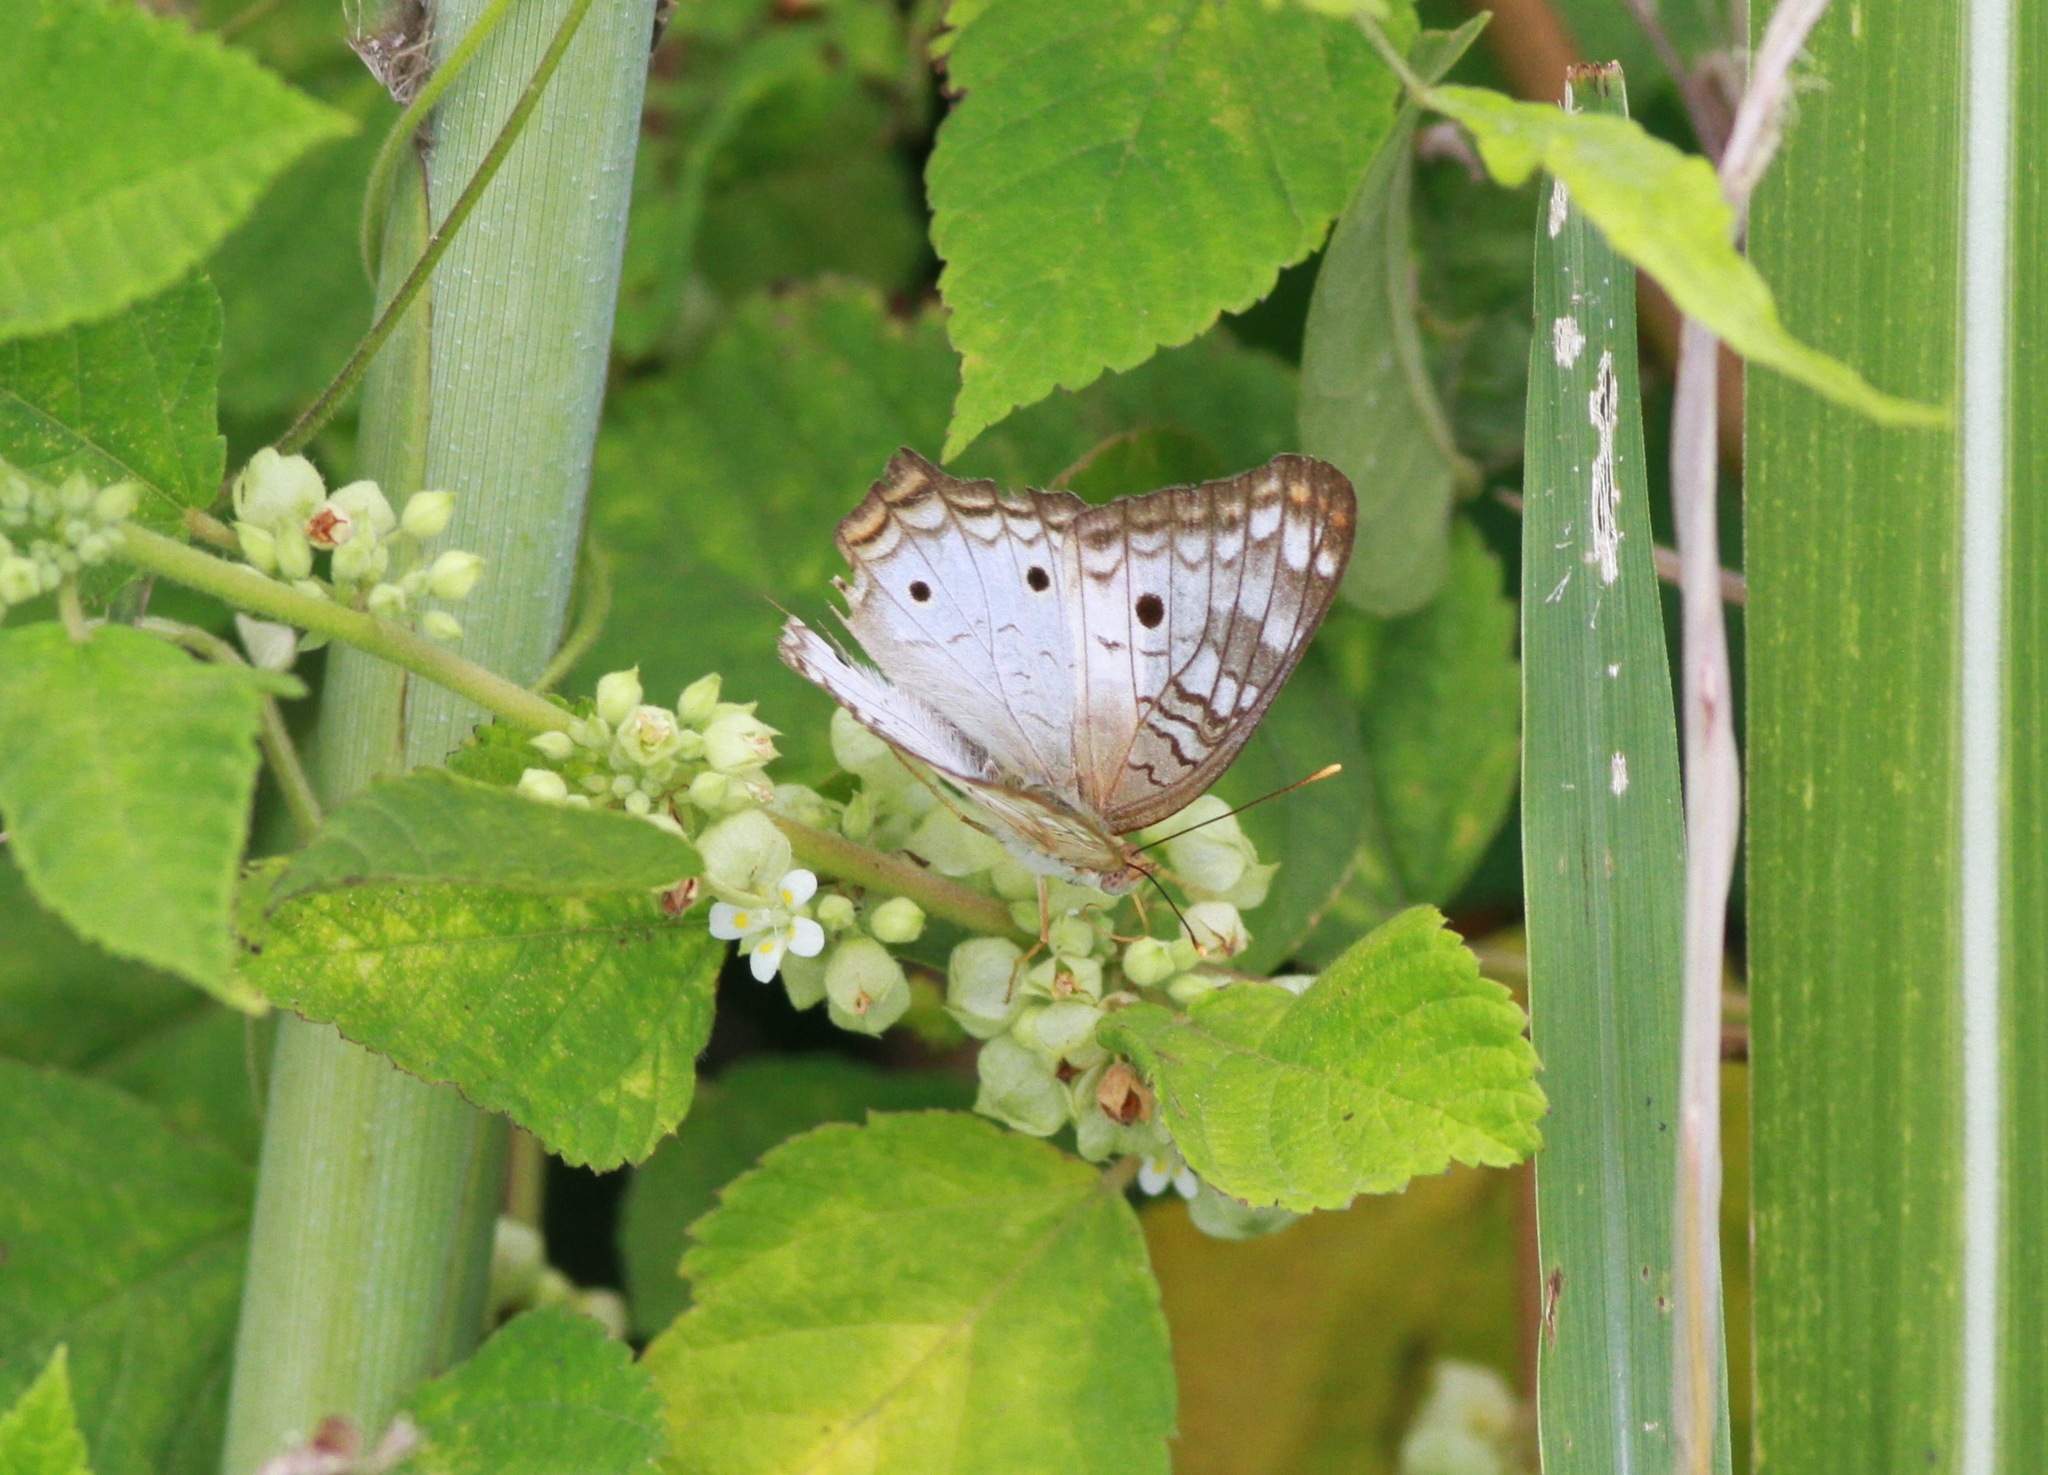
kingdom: Animalia
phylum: Arthropoda
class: Insecta
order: Lepidoptera
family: Nymphalidae
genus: Anartia
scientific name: Anartia jatrophae
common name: White peacock
